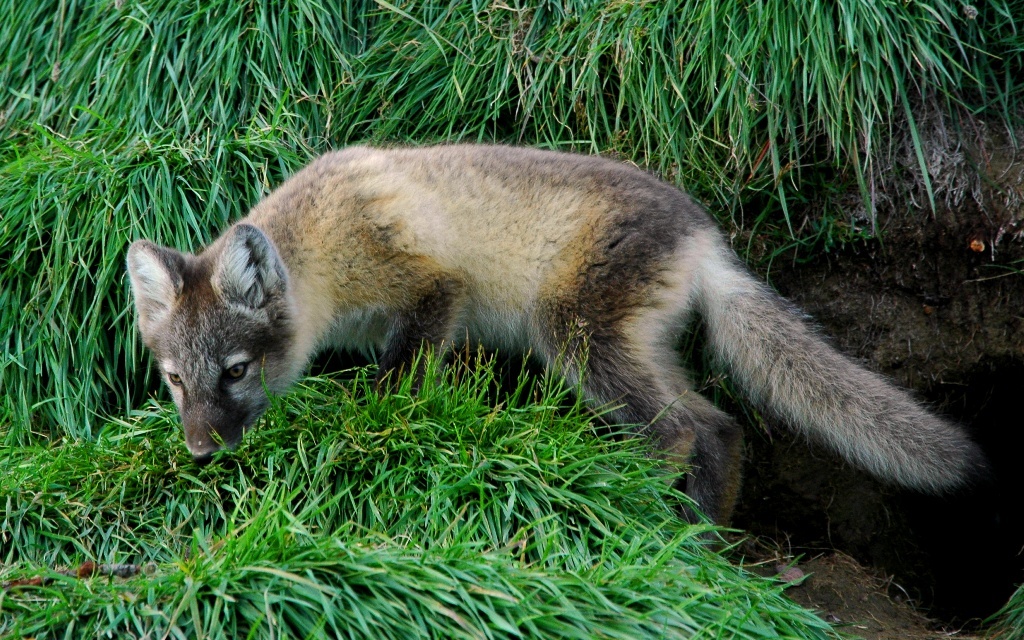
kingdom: Animalia
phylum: Chordata
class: Mammalia
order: Carnivora
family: Canidae
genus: Vulpes
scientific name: Vulpes lagopus
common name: Arctic fox
